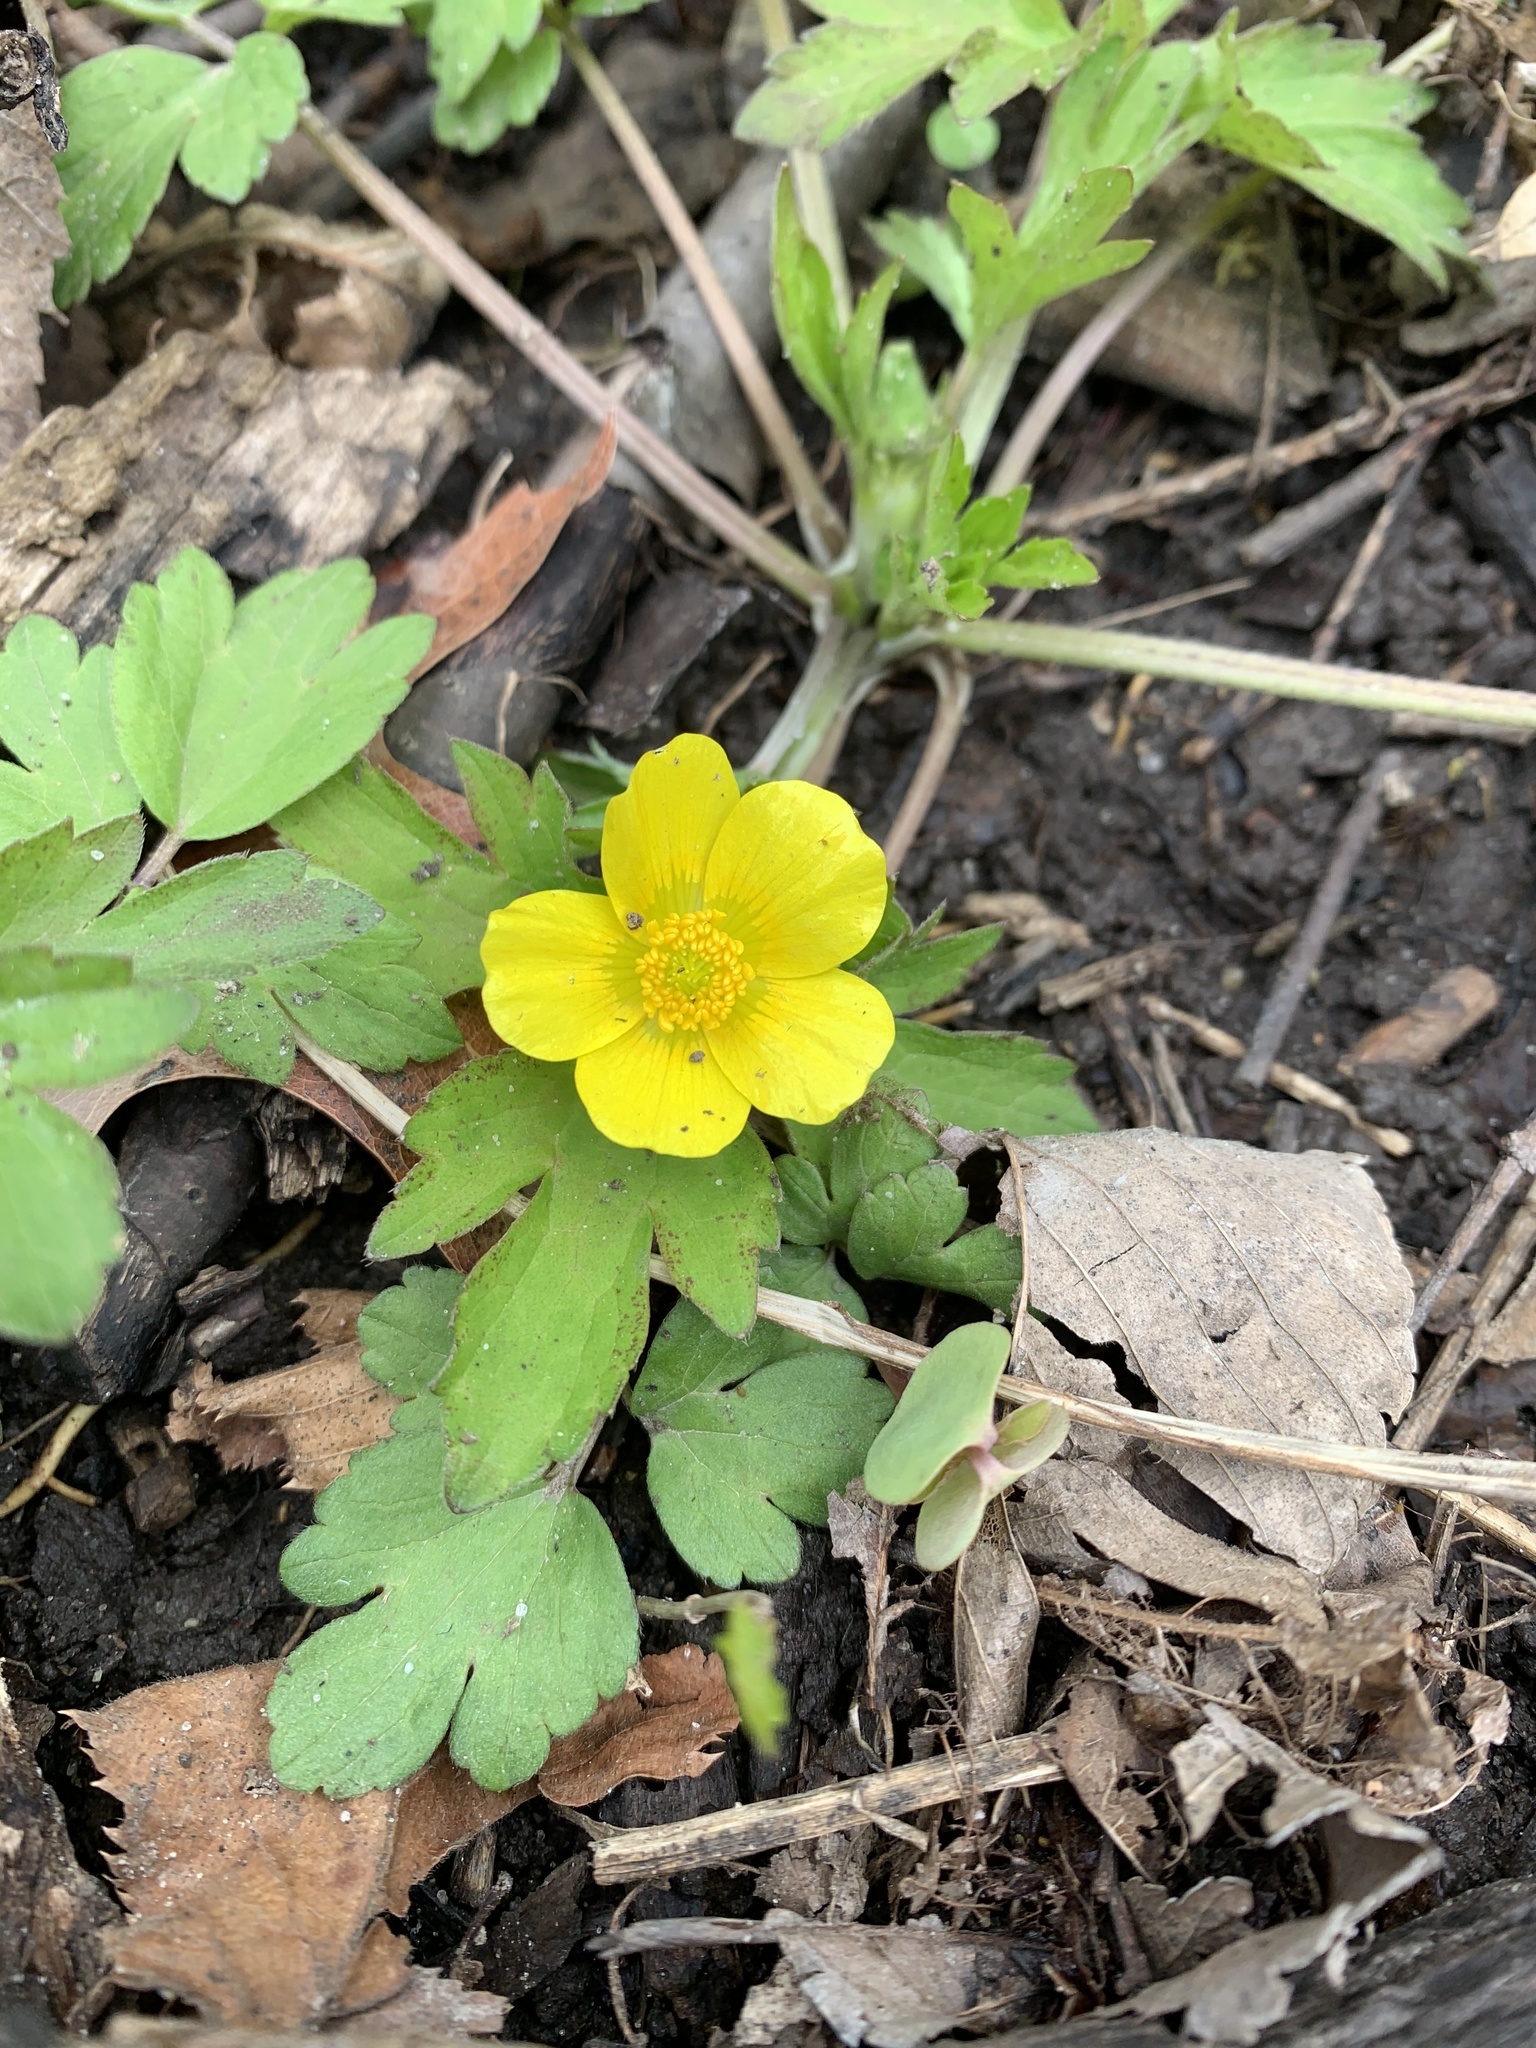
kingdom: Plantae
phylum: Tracheophyta
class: Magnoliopsida
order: Ranunculales
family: Ranunculaceae
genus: Ranunculus
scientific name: Ranunculus hispidus
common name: Bristly buttercup
